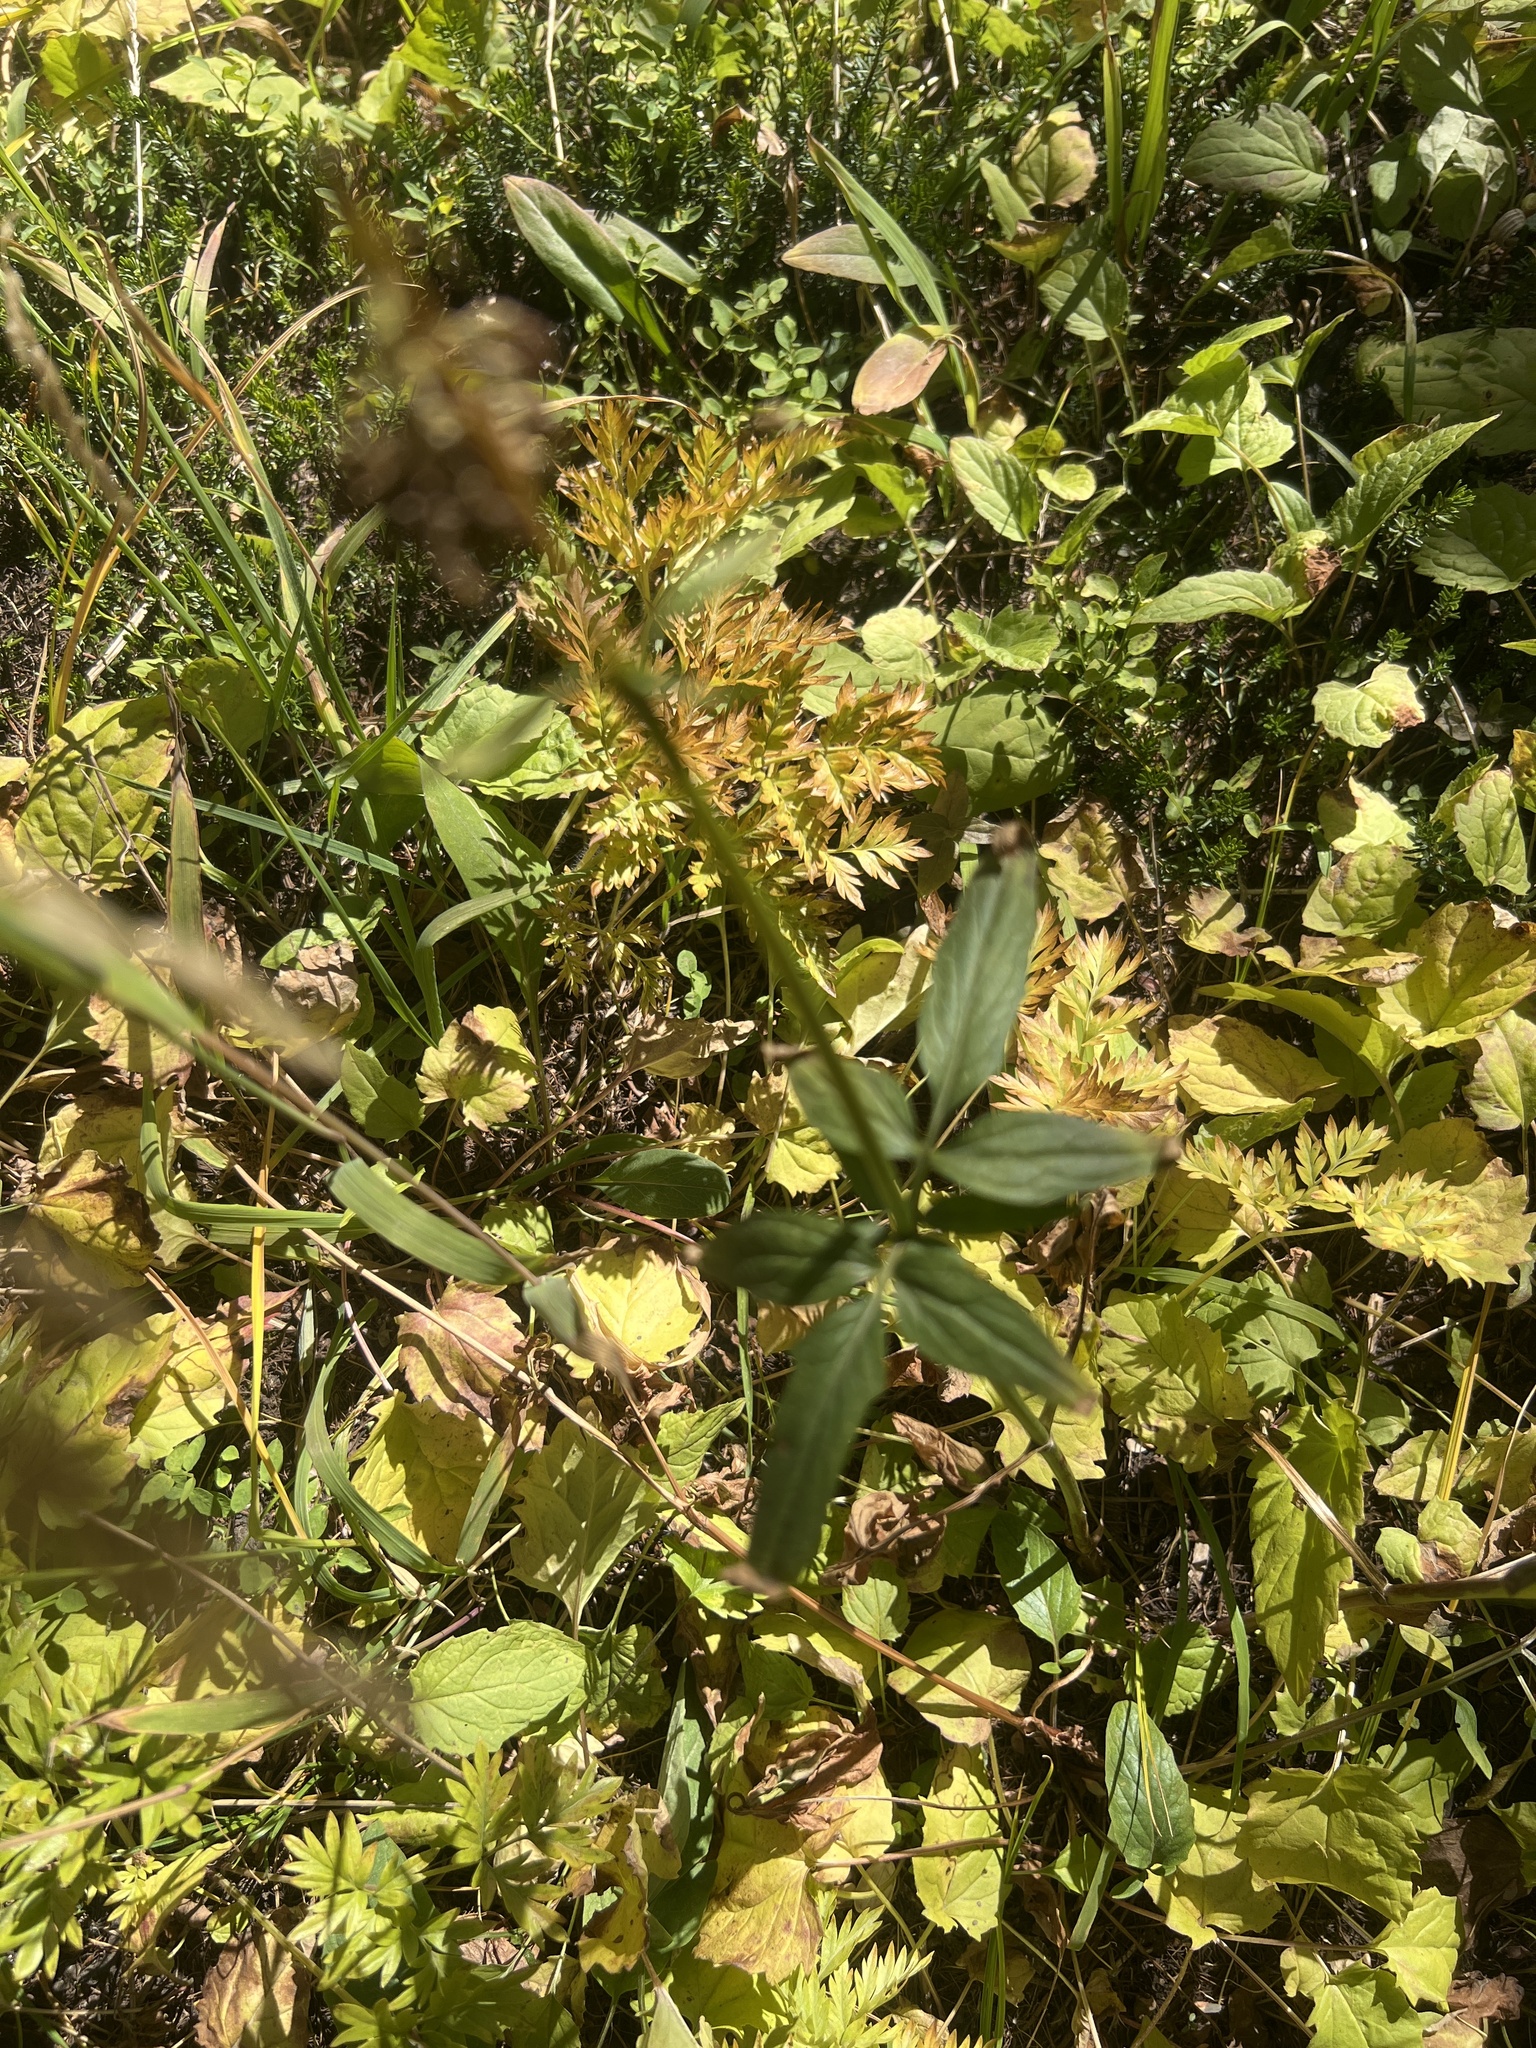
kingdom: Plantae
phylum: Tracheophyta
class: Magnoliopsida
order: Dipsacales
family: Caprifoliaceae
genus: Valeriana
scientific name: Valeriana sitchensis
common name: Pacific valerian
